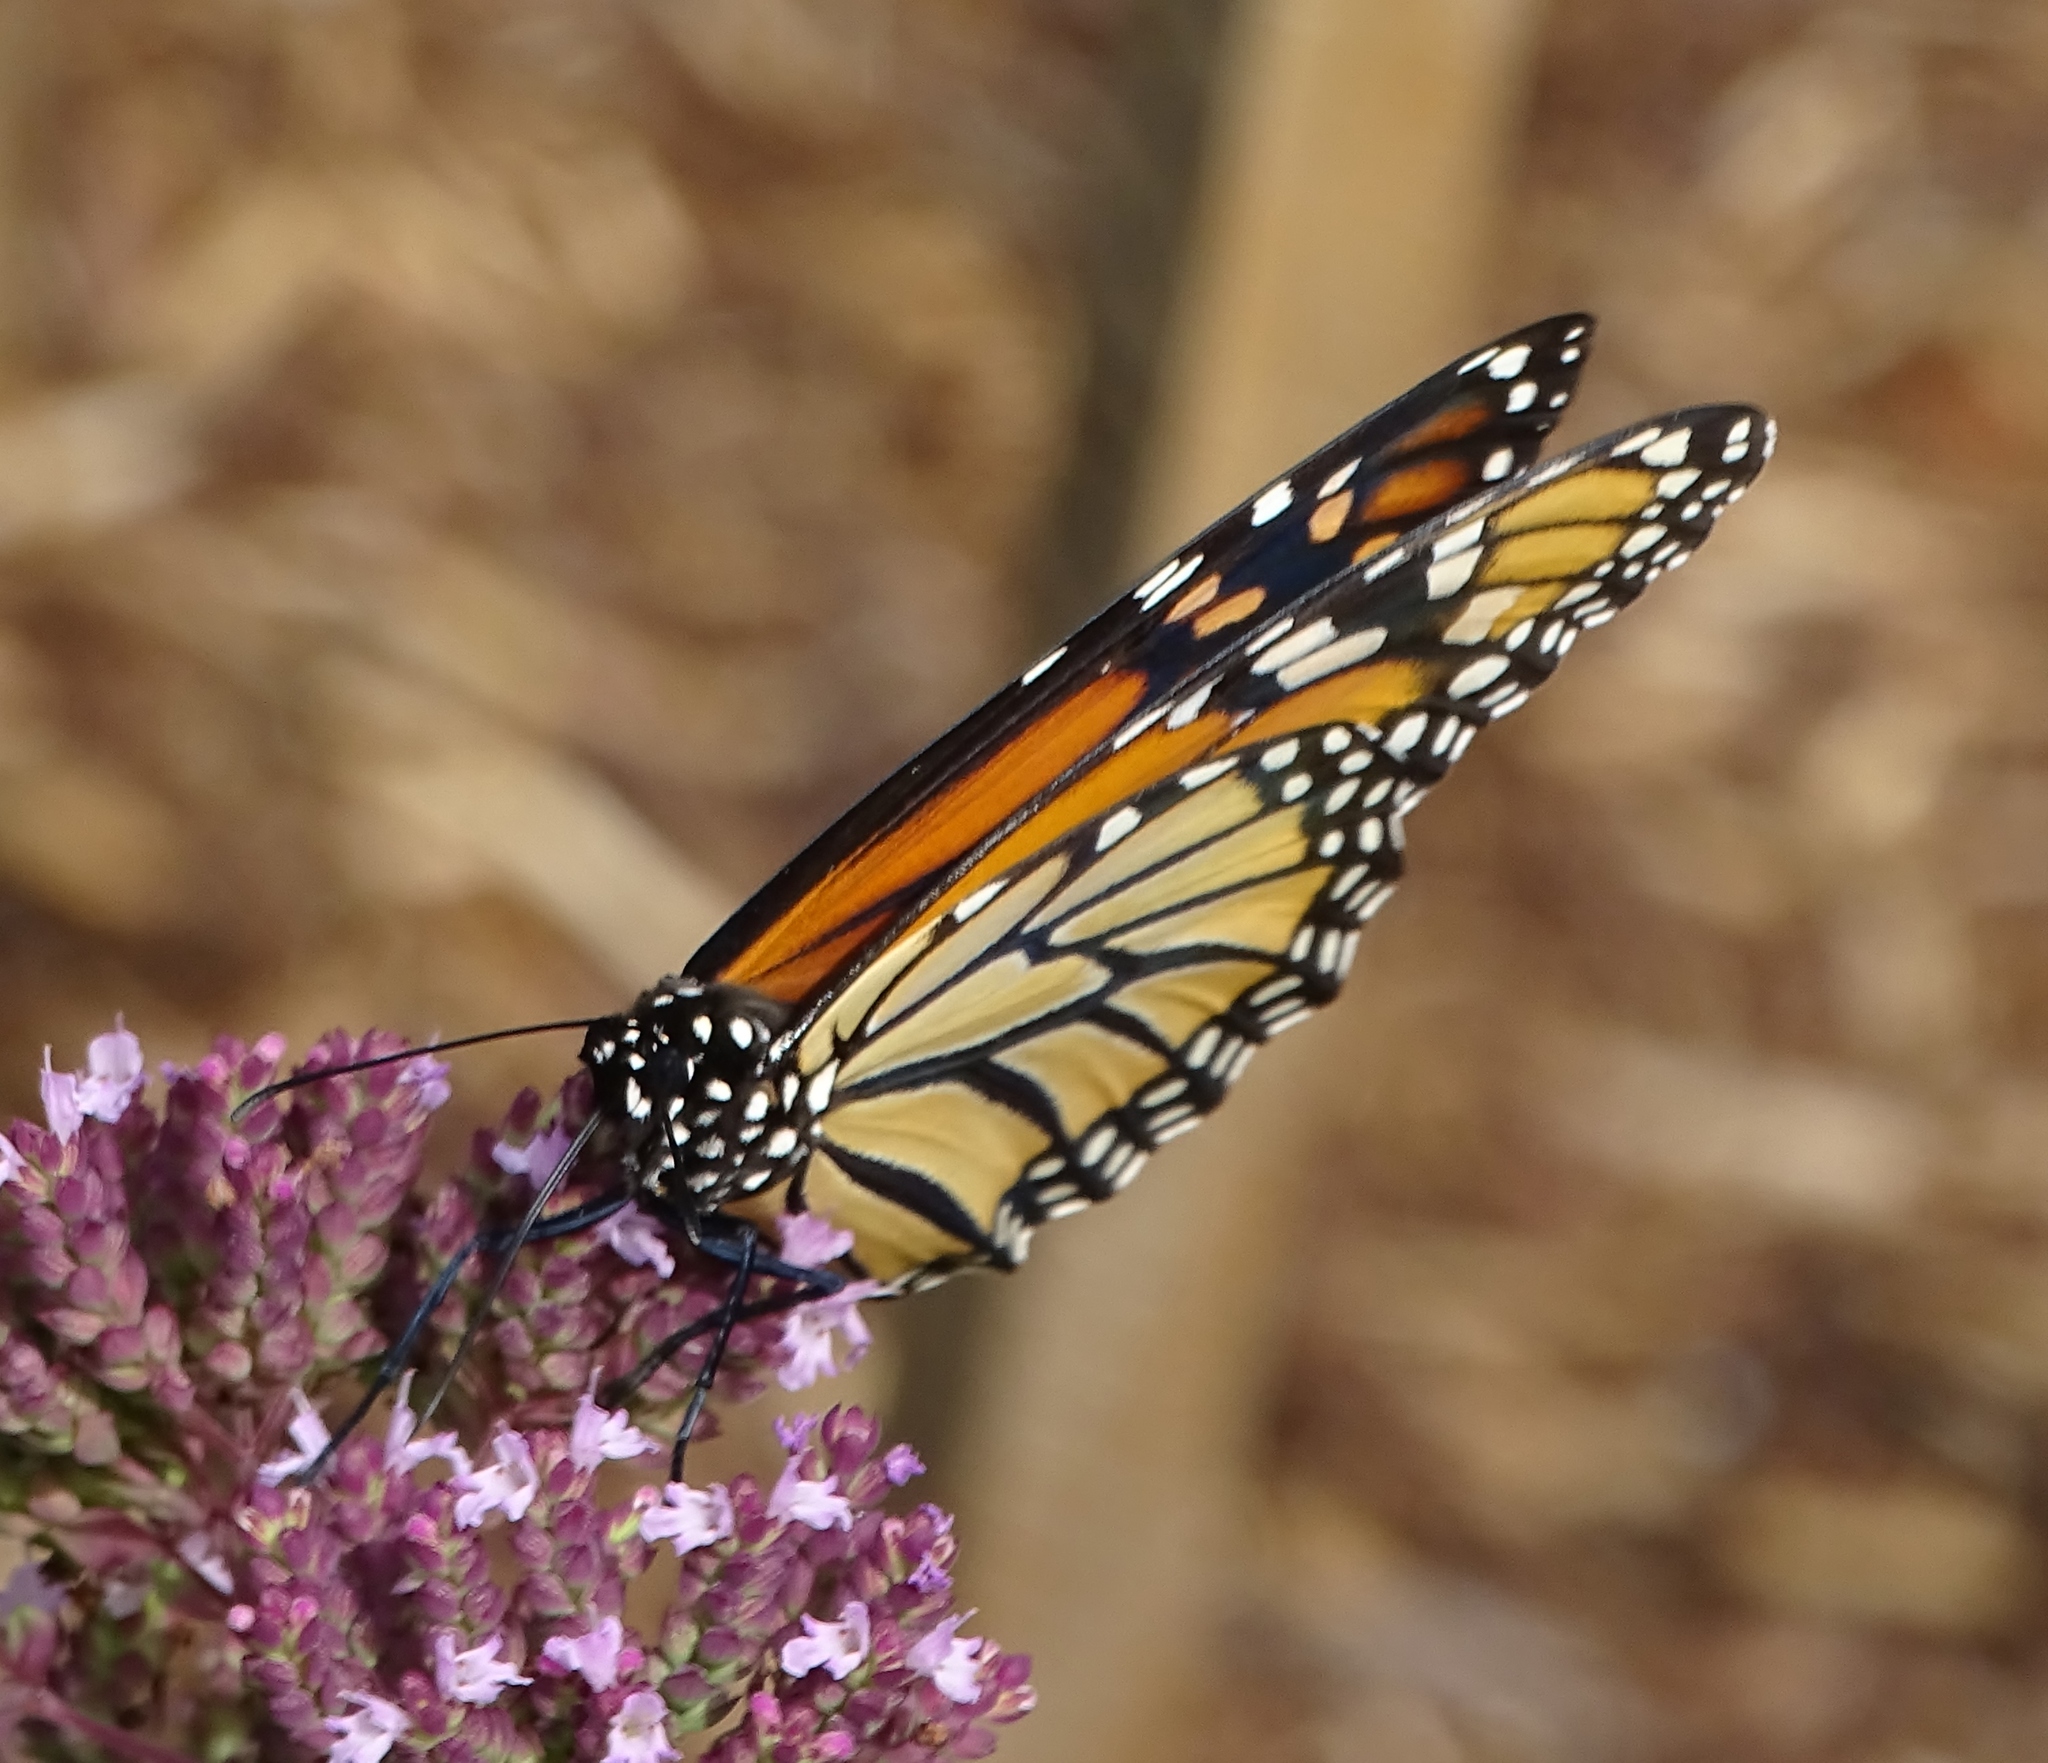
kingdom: Animalia
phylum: Arthropoda
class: Insecta
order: Lepidoptera
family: Nymphalidae
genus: Danaus
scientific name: Danaus plexippus
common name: Monarch
